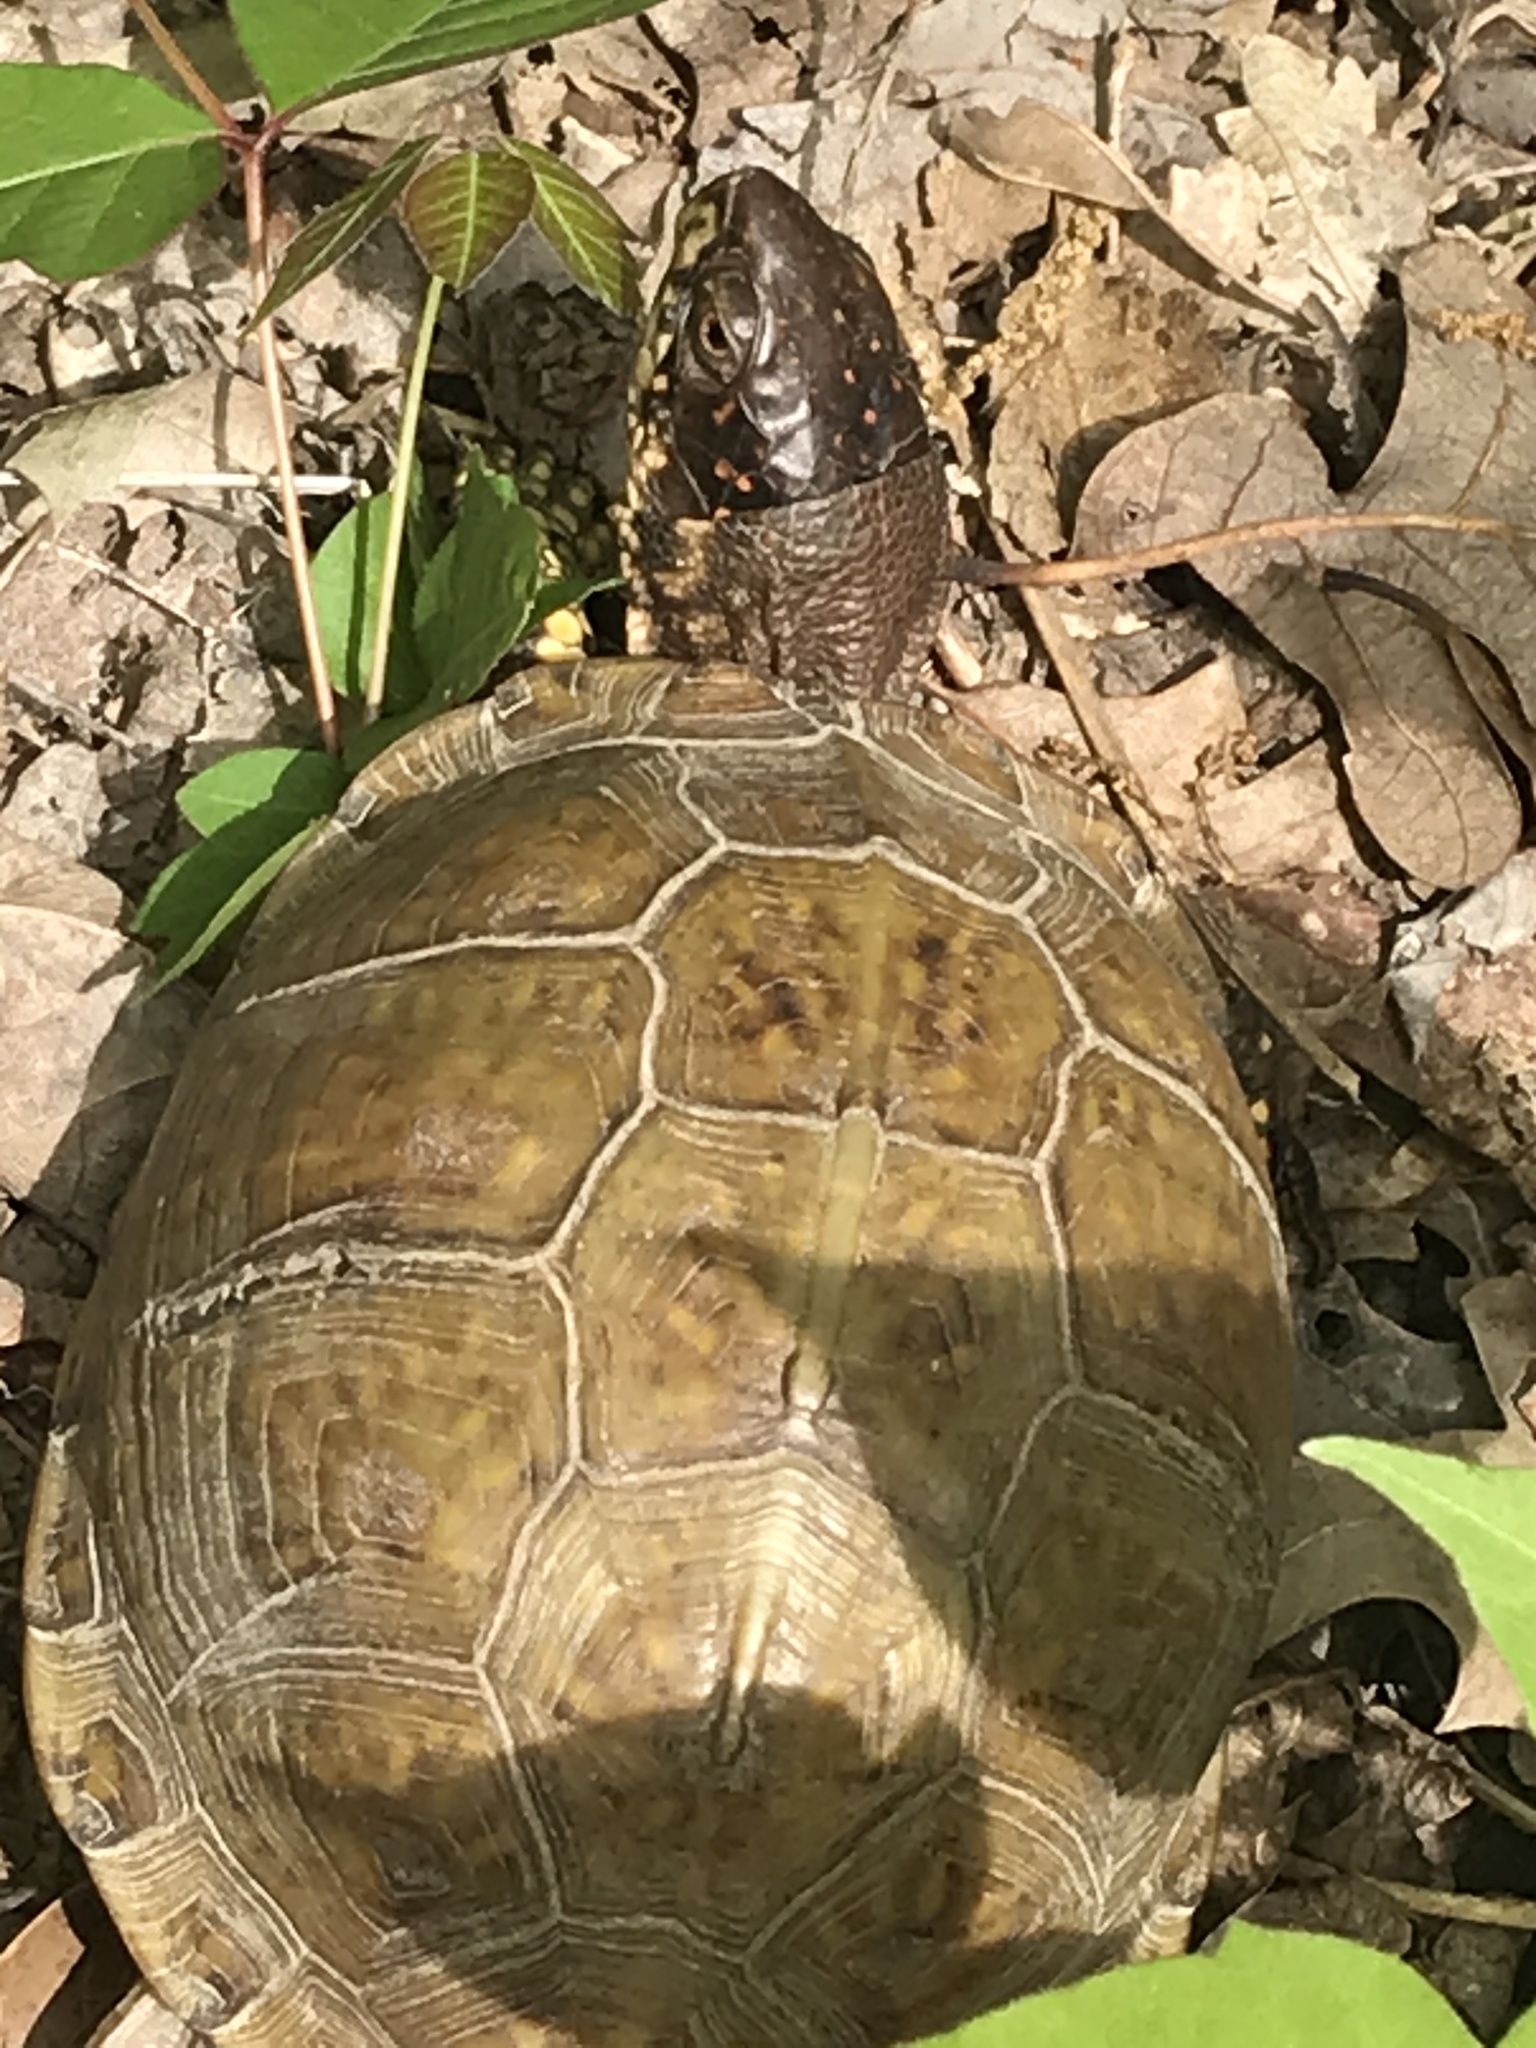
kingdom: Animalia
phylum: Chordata
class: Testudines
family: Emydidae
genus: Terrapene
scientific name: Terrapene carolina
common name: Common box turtle
